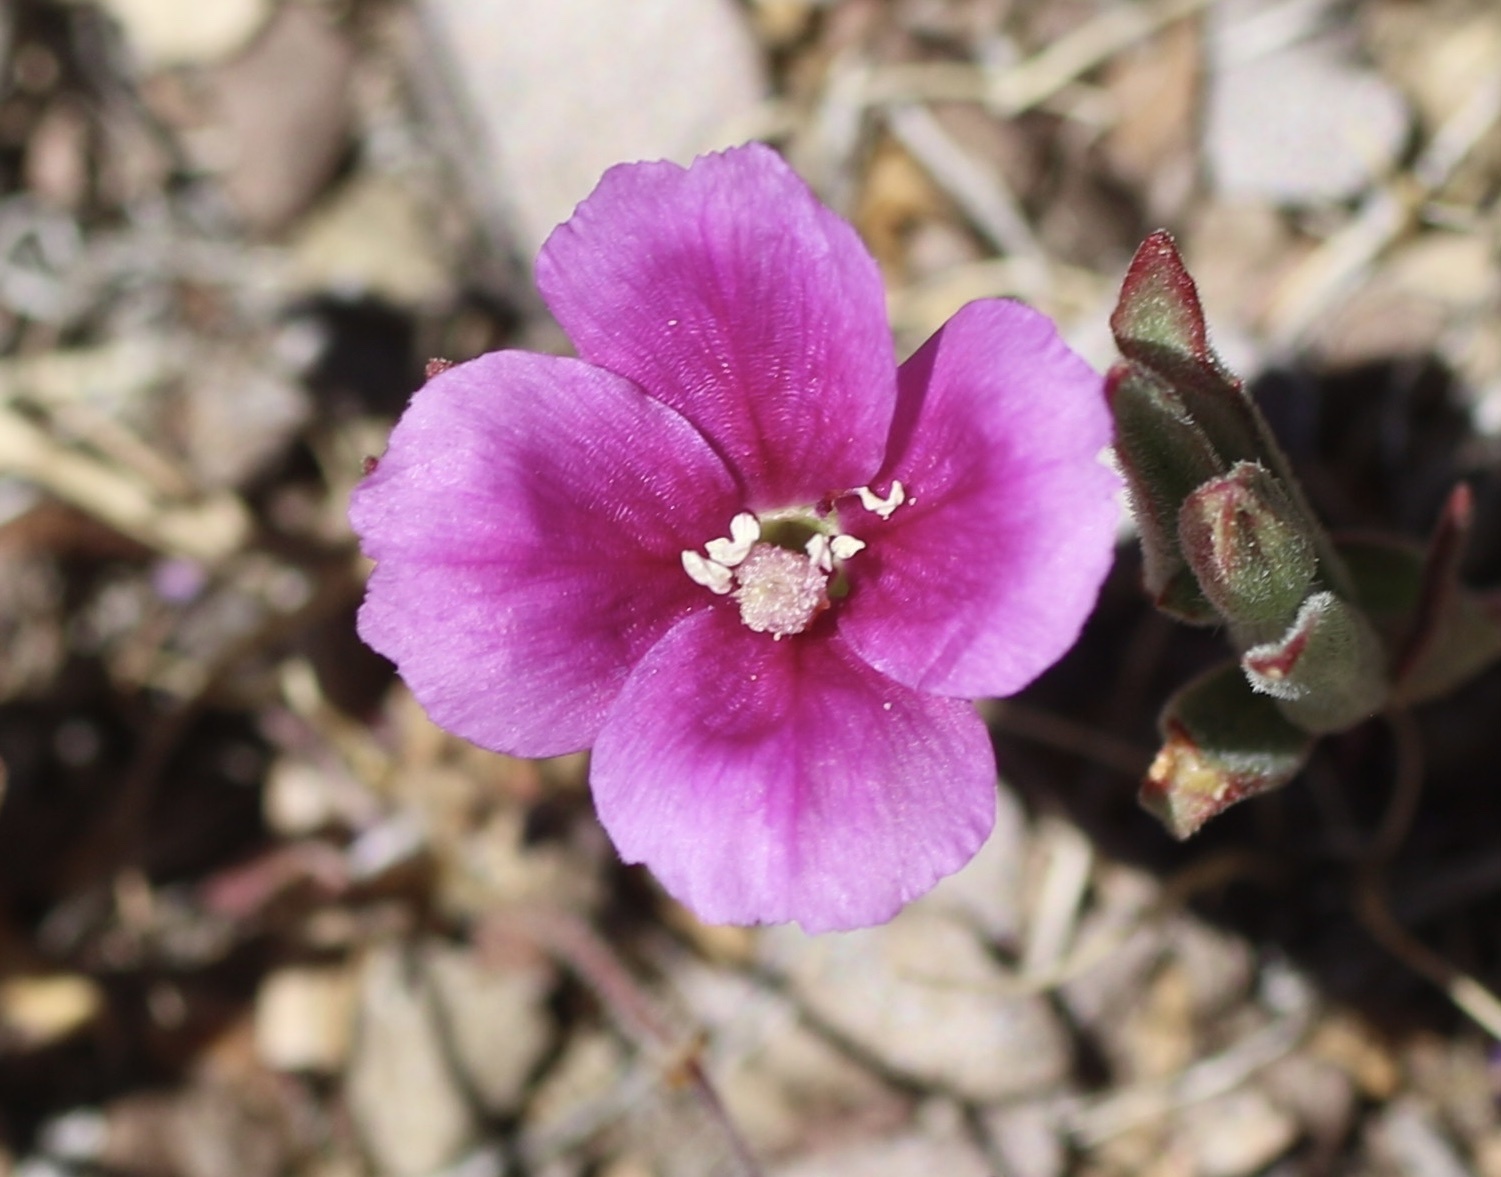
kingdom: Plantae
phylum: Tracheophyta
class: Magnoliopsida
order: Myrtales
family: Onagraceae
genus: Clarkia
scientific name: Clarkia purpurea
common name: Purple clarkia
